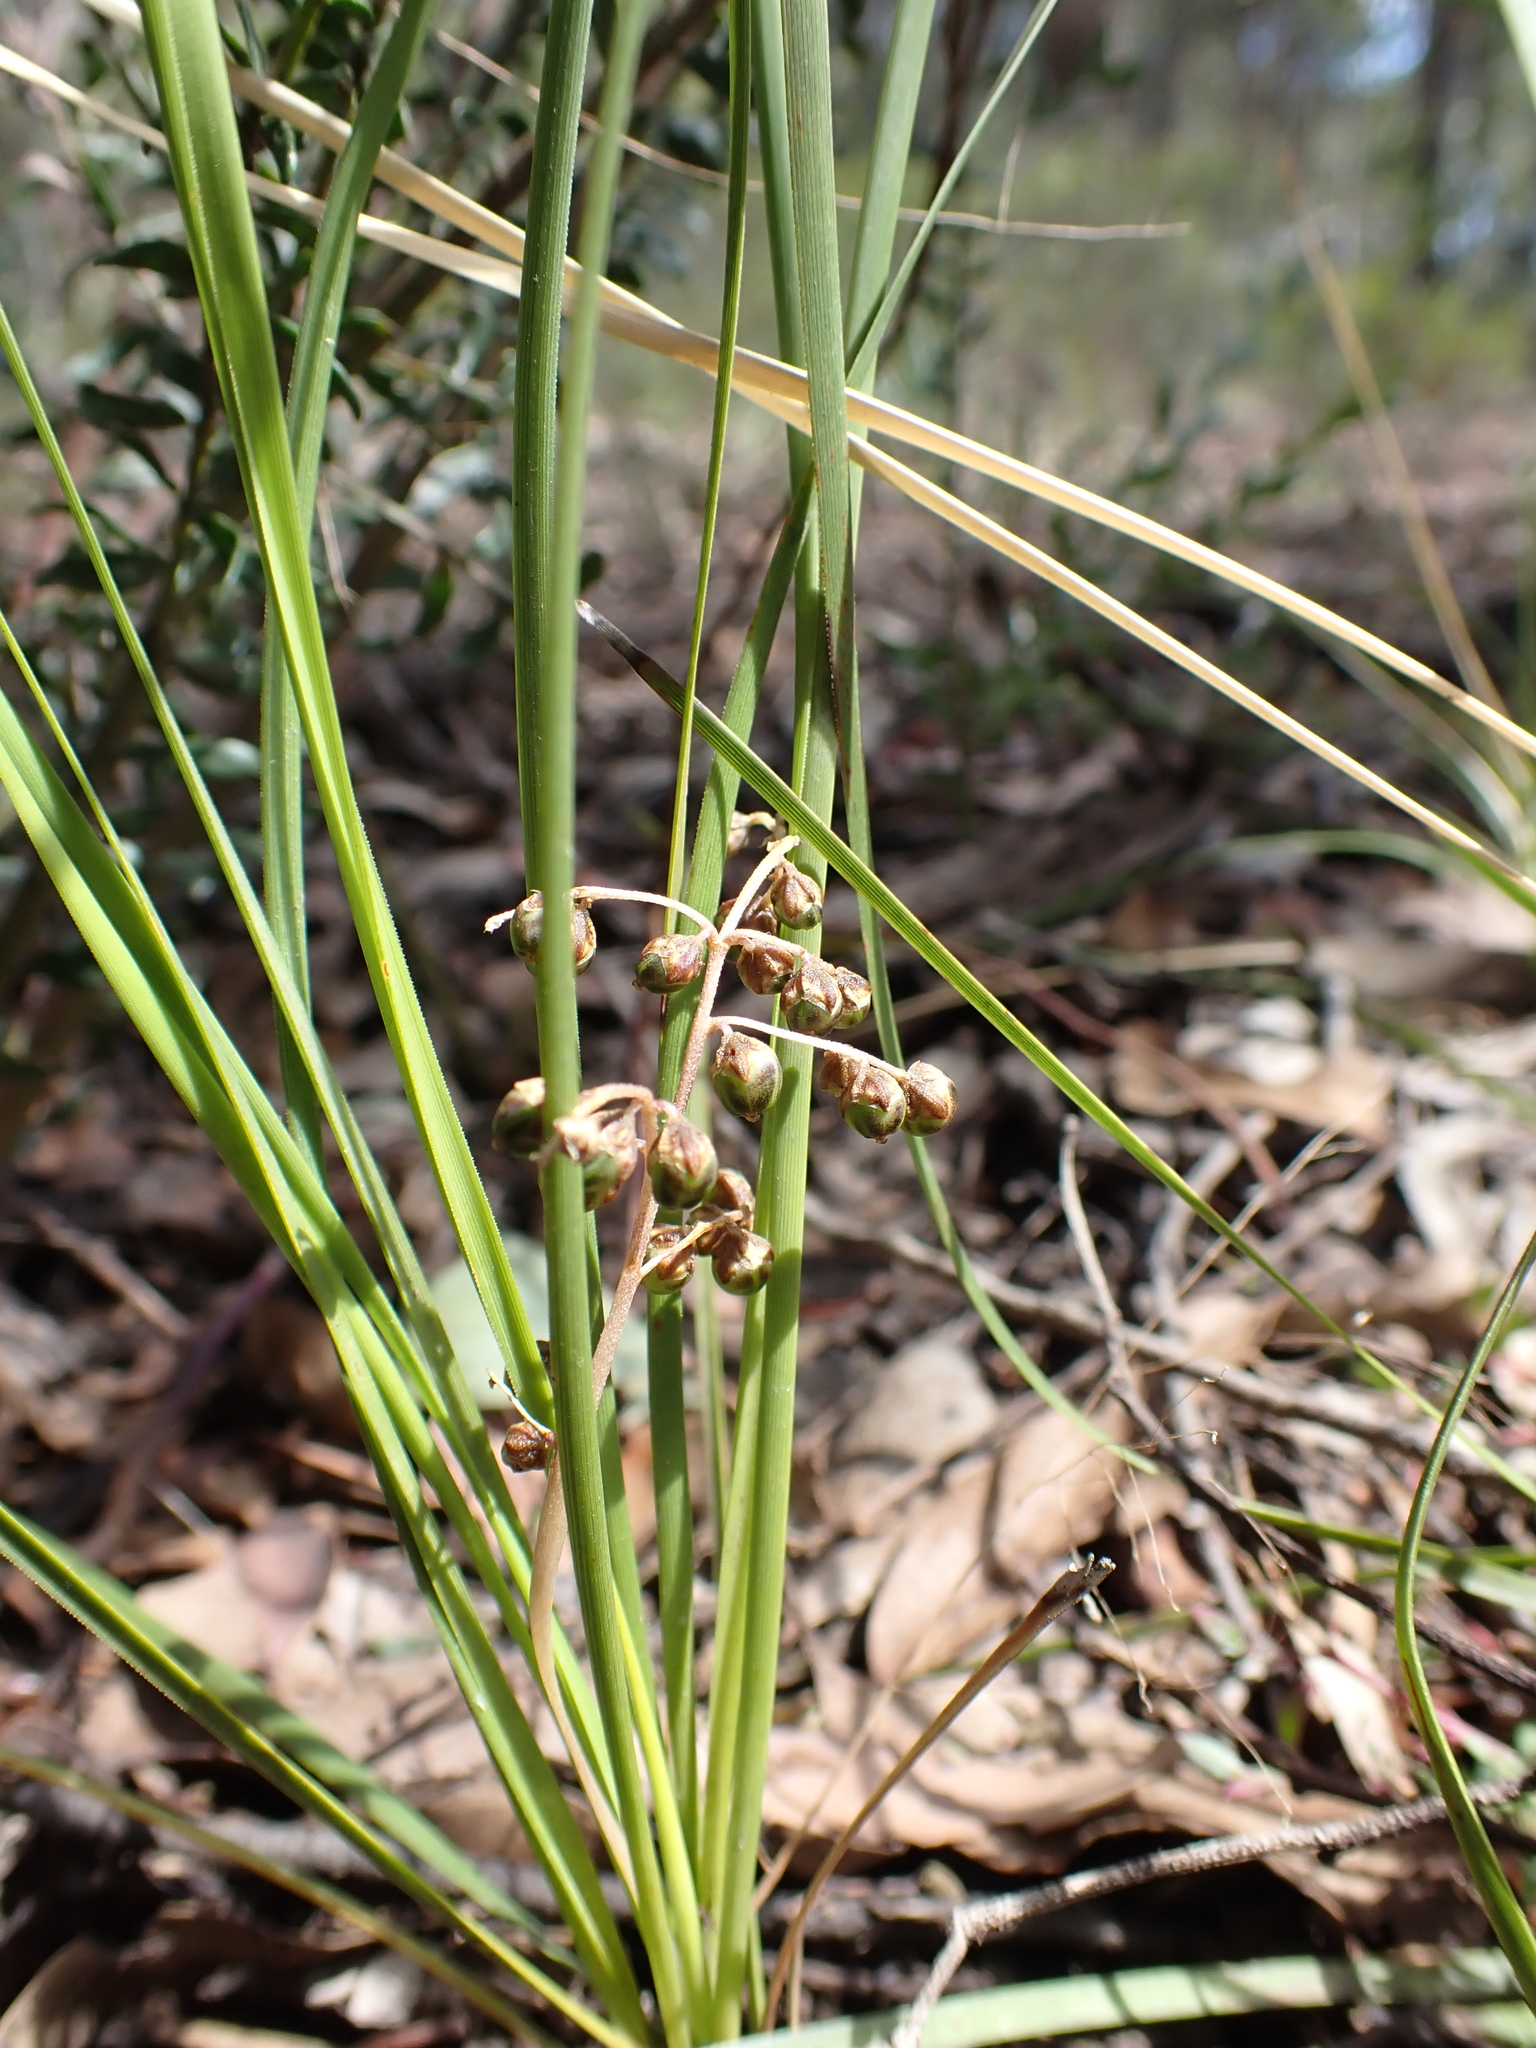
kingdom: Plantae
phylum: Tracheophyta
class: Liliopsida
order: Asparagales
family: Asparagaceae
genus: Lomandra
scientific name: Lomandra filiformis
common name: Wattle mat-rush
